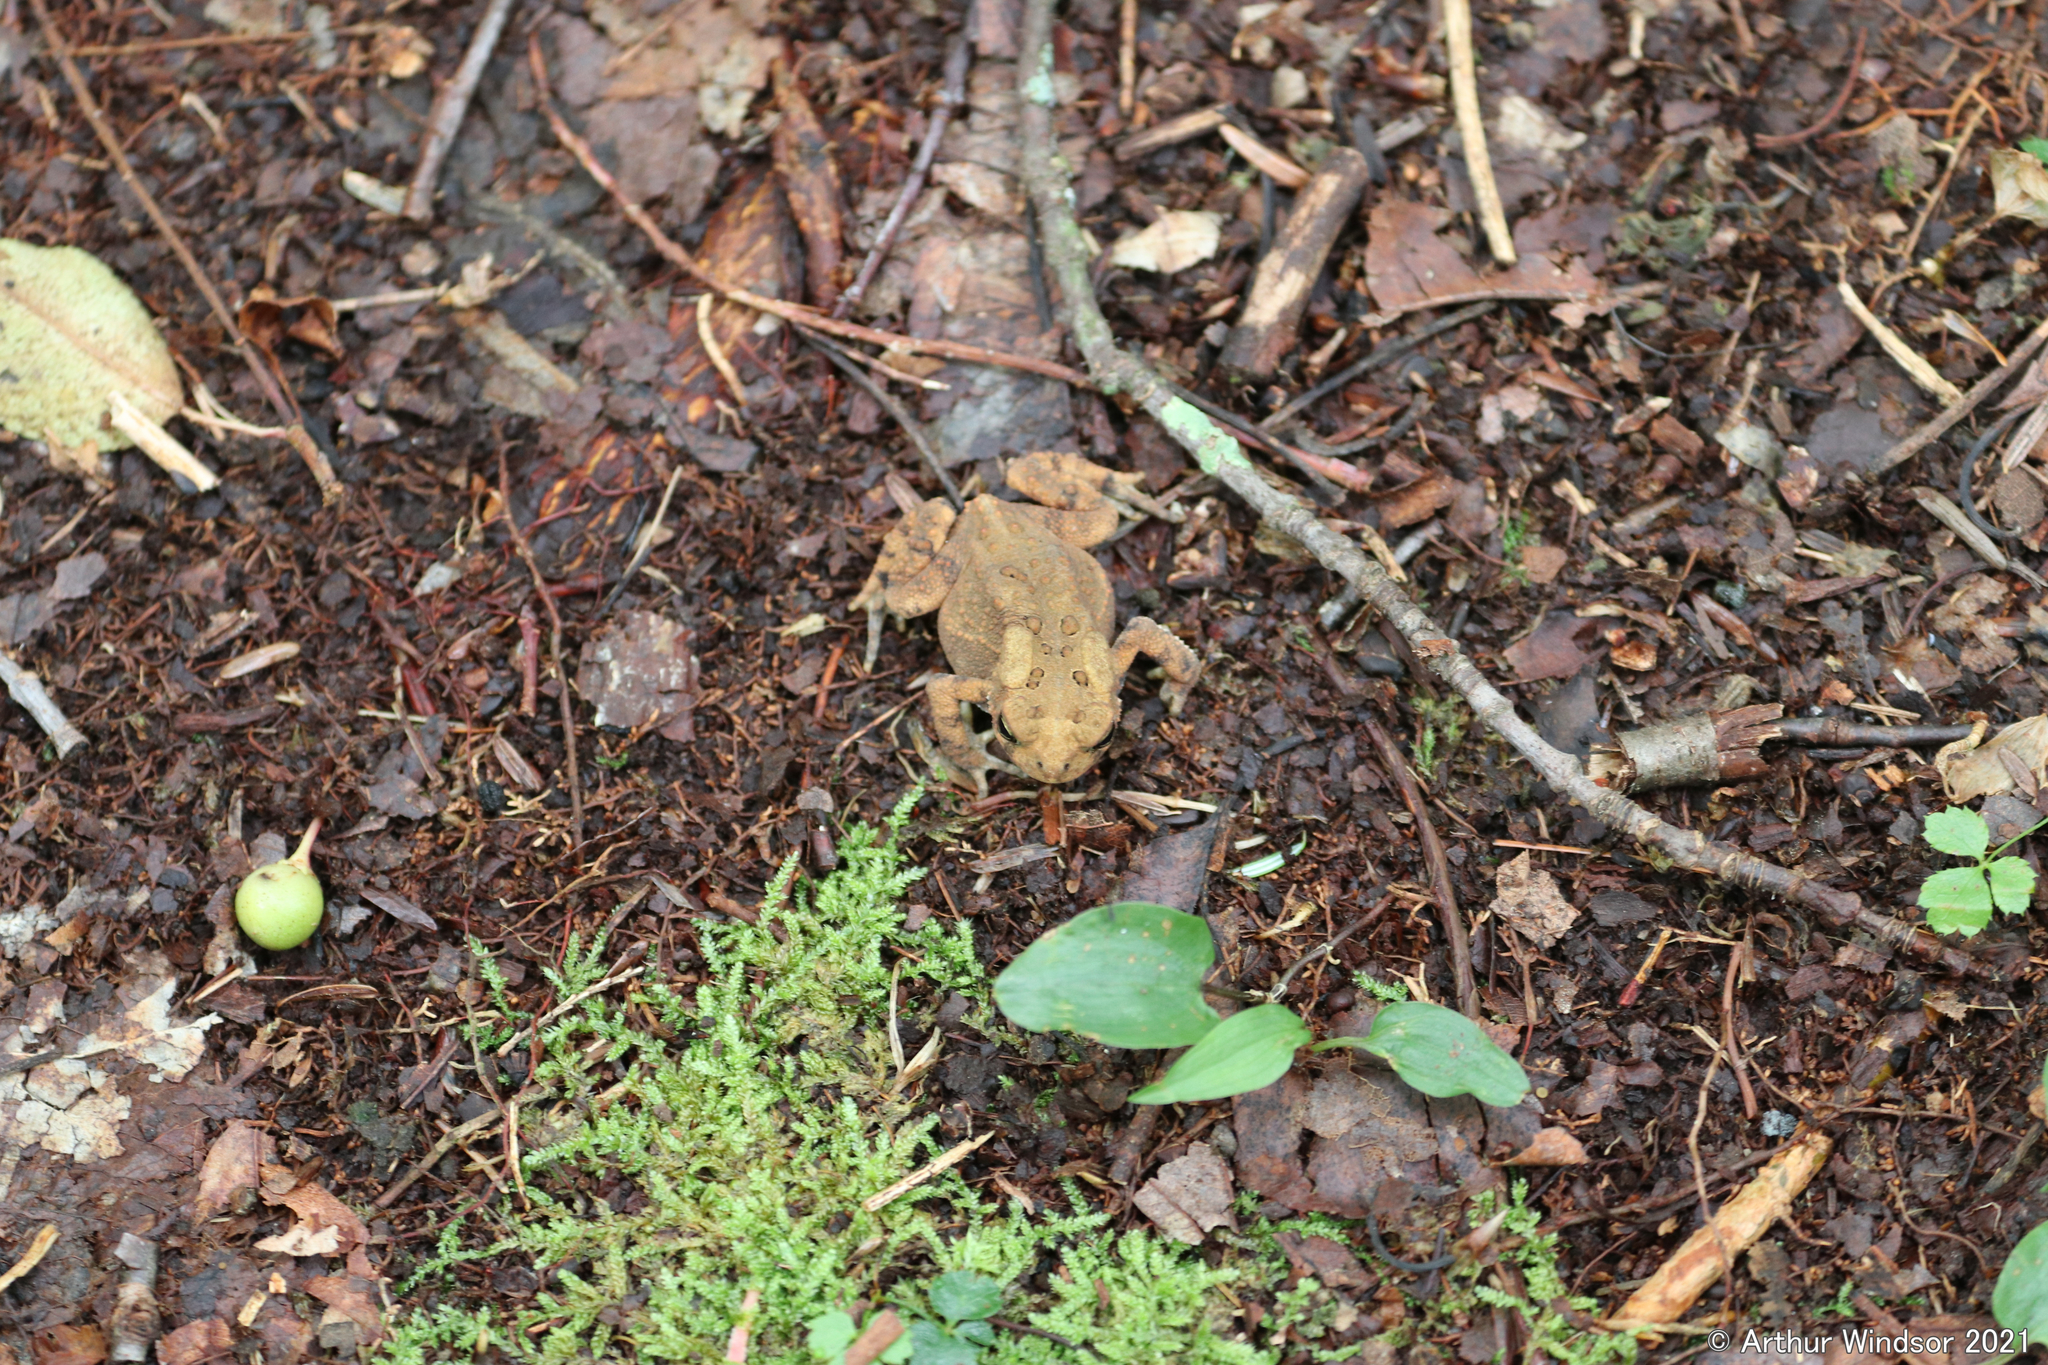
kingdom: Animalia
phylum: Chordata
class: Amphibia
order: Anura
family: Bufonidae
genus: Anaxyrus
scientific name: Anaxyrus americanus
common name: American toad
